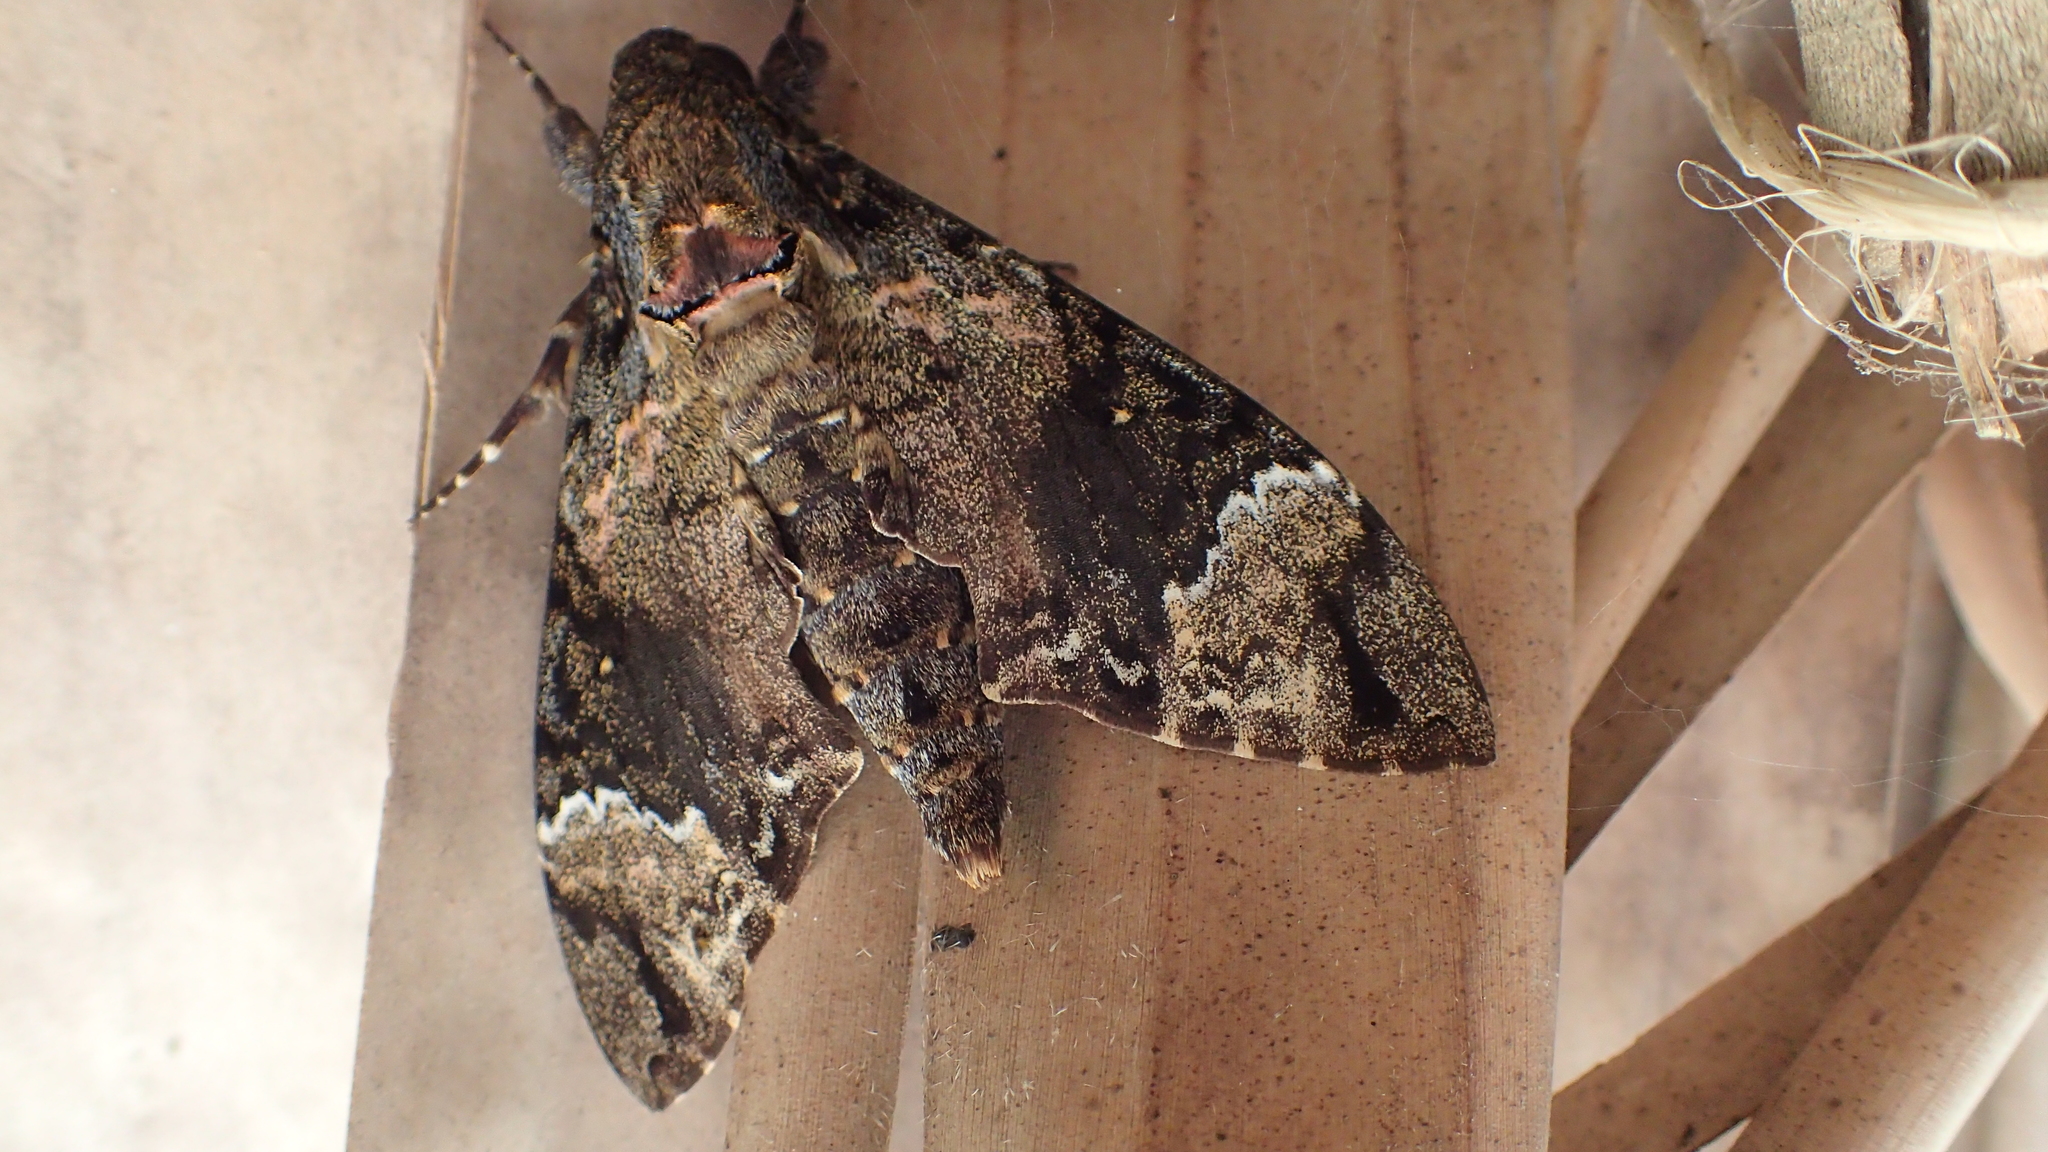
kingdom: Animalia
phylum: Arthropoda
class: Insecta
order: Lepidoptera
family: Sphingidae
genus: Coelonia
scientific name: Coelonia fulvinotata
